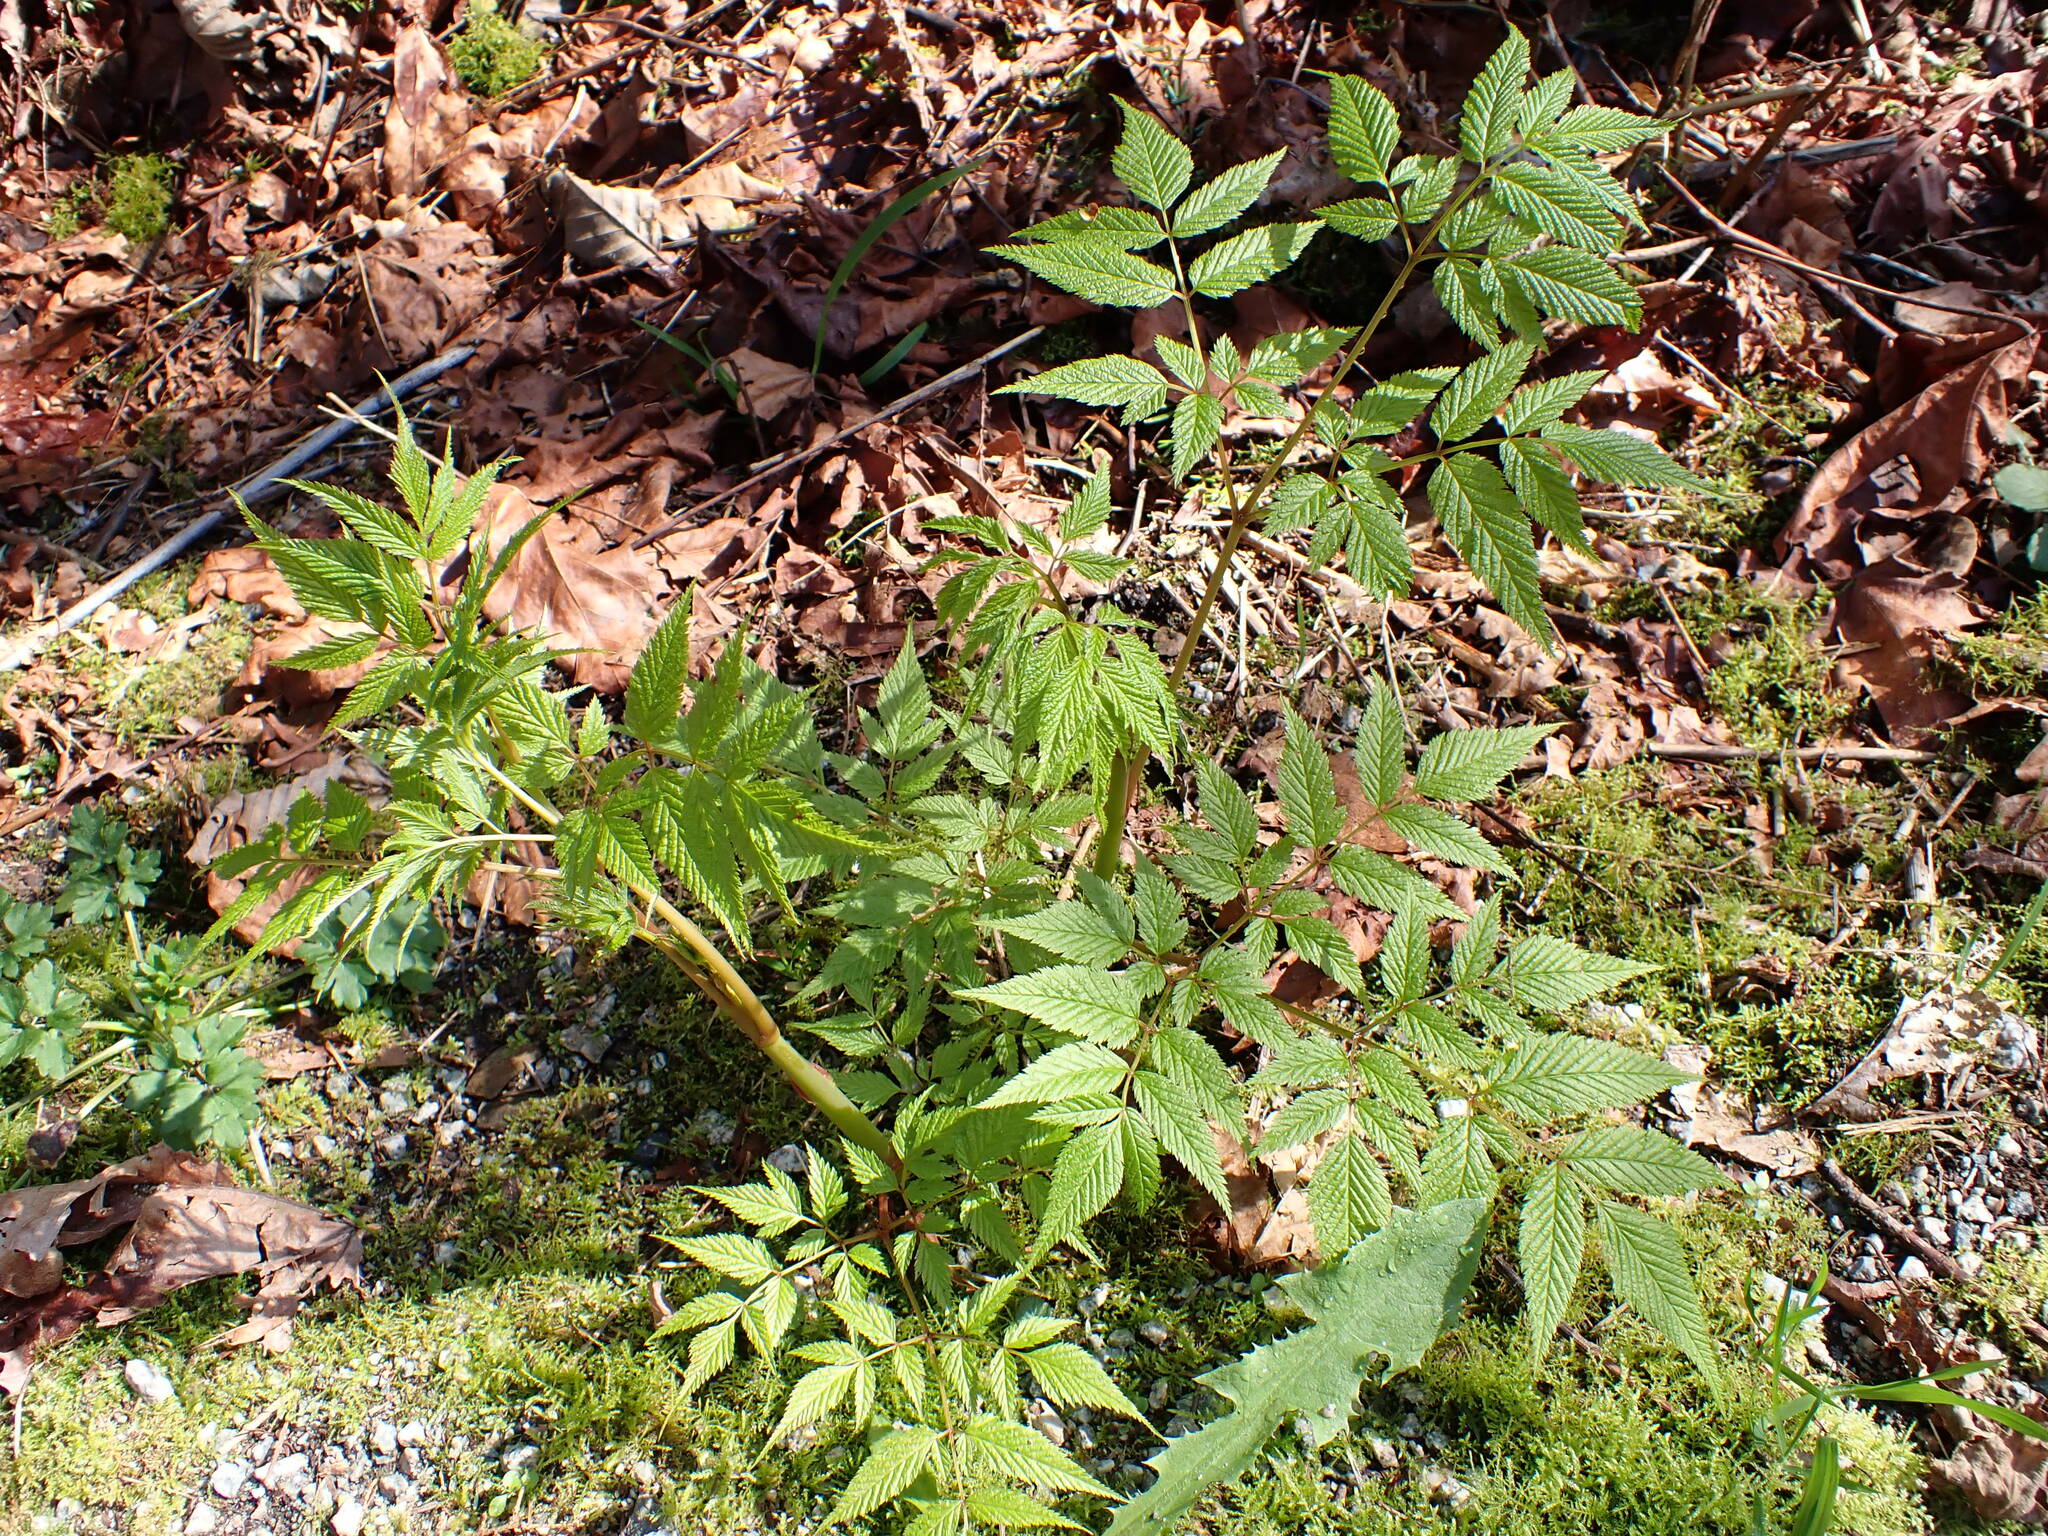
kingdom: Plantae
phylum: Tracheophyta
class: Magnoliopsida
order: Rosales
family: Rosaceae
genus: Aruncus
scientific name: Aruncus dioicus
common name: Buck's-beard
